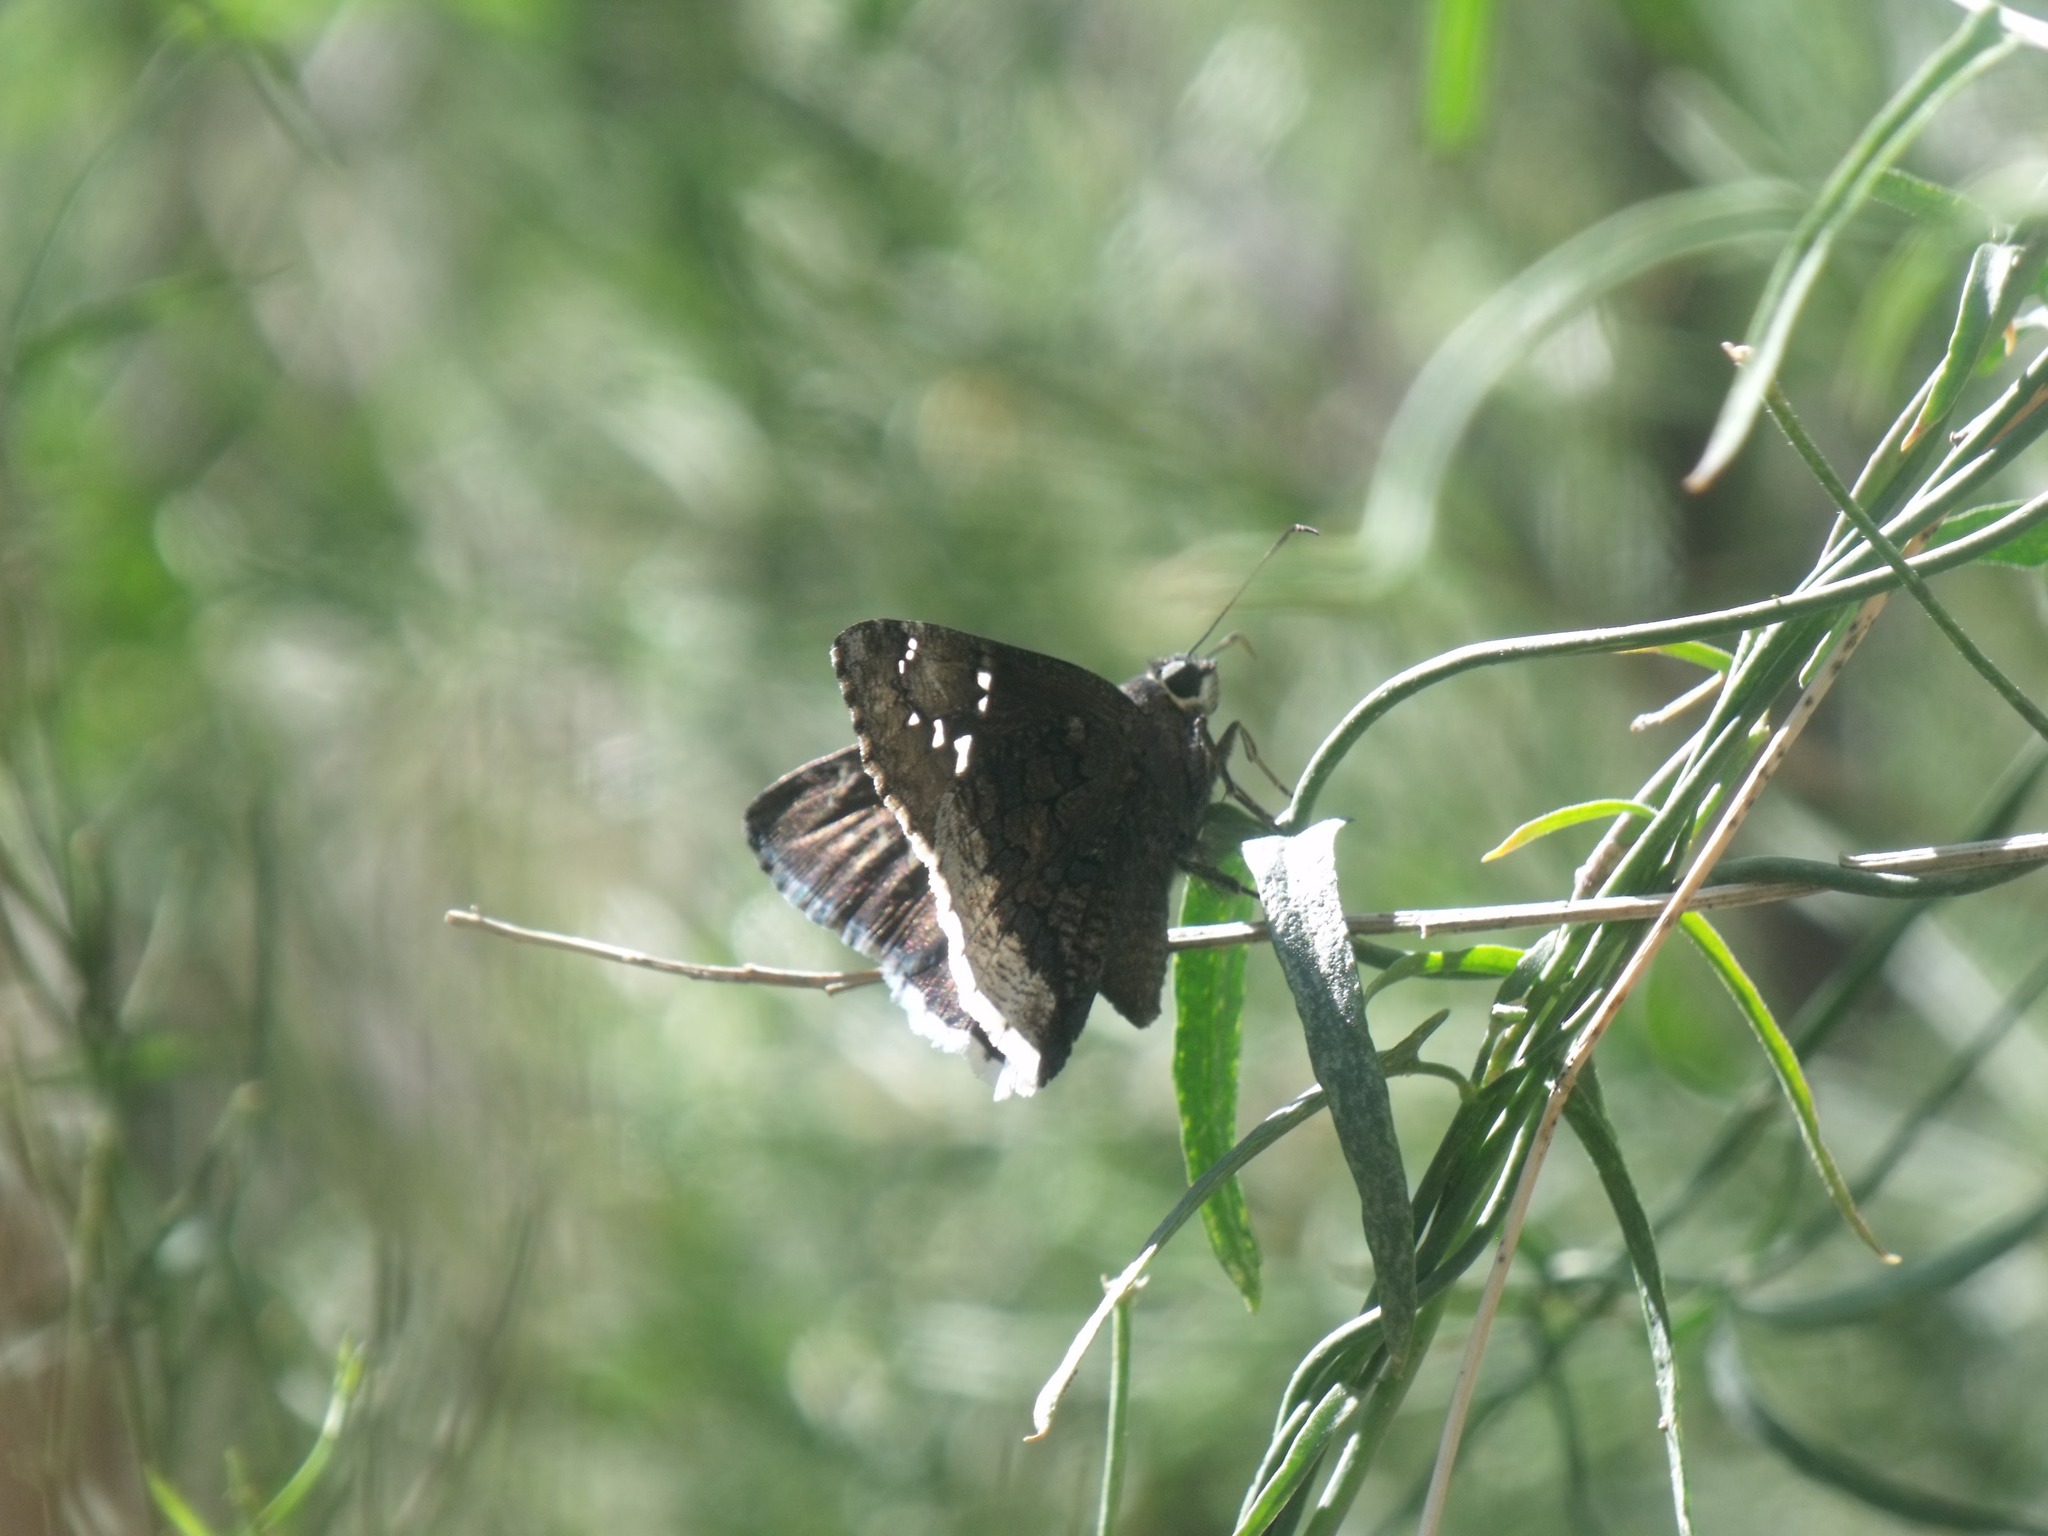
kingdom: Animalia
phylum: Arthropoda
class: Insecta
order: Lepidoptera
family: Hesperiidae
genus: Thorybes
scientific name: Thorybes casica
